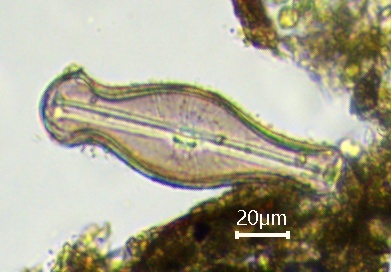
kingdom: Chromista
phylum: Ochrophyta
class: Bacillariophyceae
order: Cymbellales
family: Cymbellaceae
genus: Didymosphenia
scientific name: Didymosphenia geminatum
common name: Didymo
